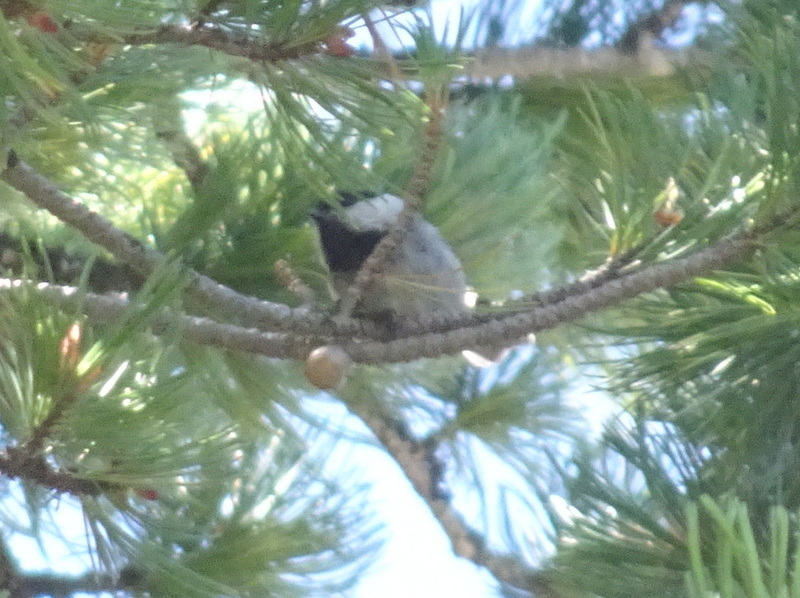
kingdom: Animalia
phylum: Chordata
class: Aves
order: Passeriformes
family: Paridae
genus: Poecile
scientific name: Poecile montanus
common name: Willow tit
